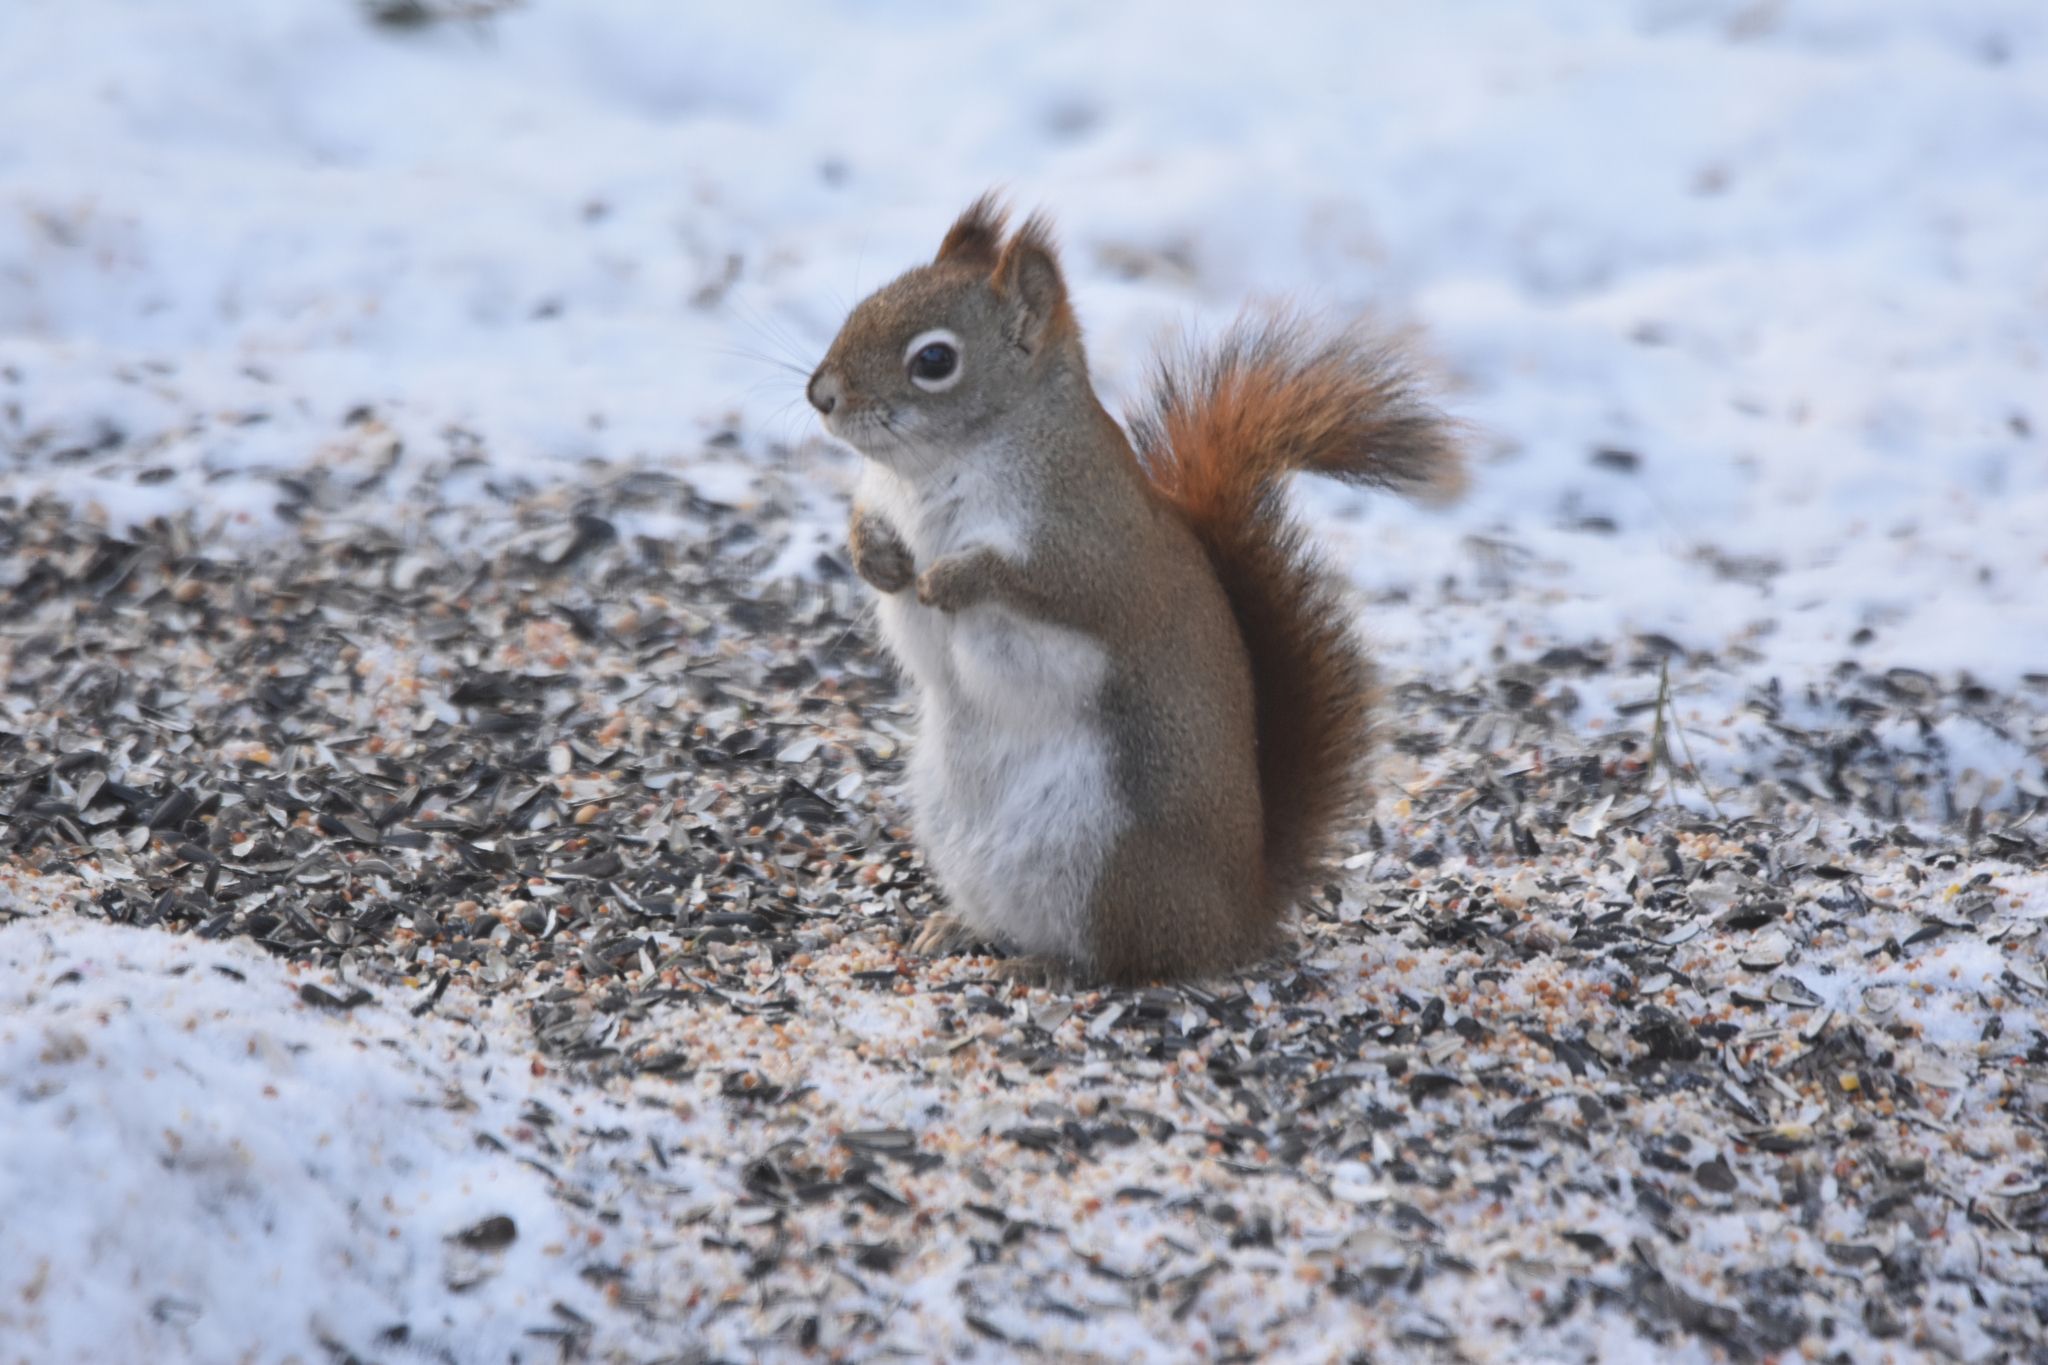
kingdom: Animalia
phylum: Chordata
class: Mammalia
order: Rodentia
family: Sciuridae
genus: Tamiasciurus
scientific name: Tamiasciurus hudsonicus
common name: Red squirrel
